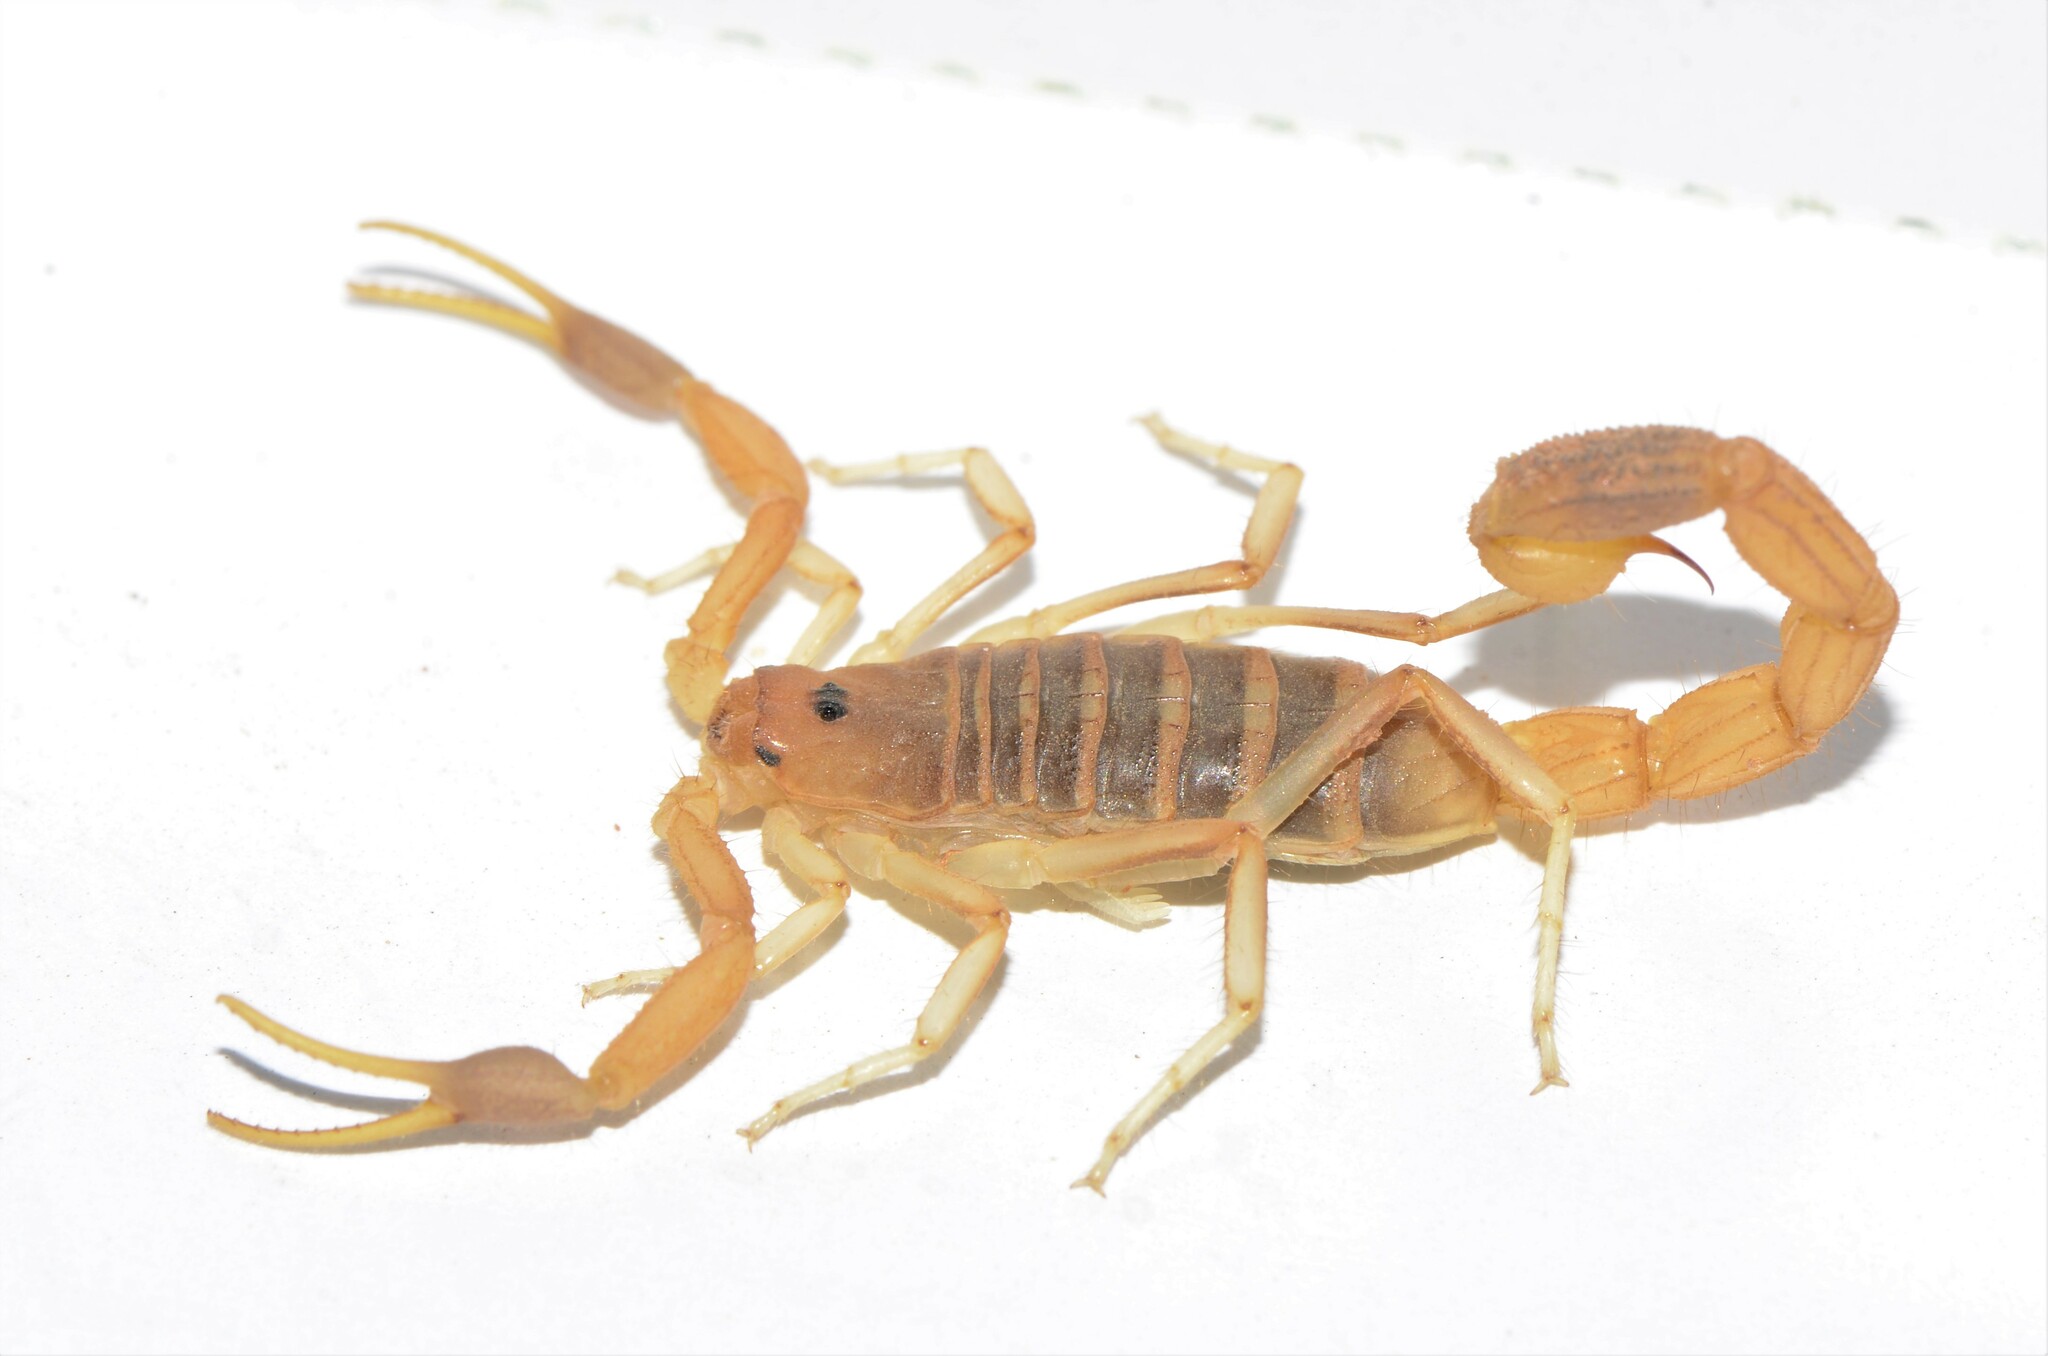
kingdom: Animalia
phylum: Arthropoda
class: Arachnida
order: Scorpiones
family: Buthidae
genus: Uroplectes
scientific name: Uroplectes gracilior
